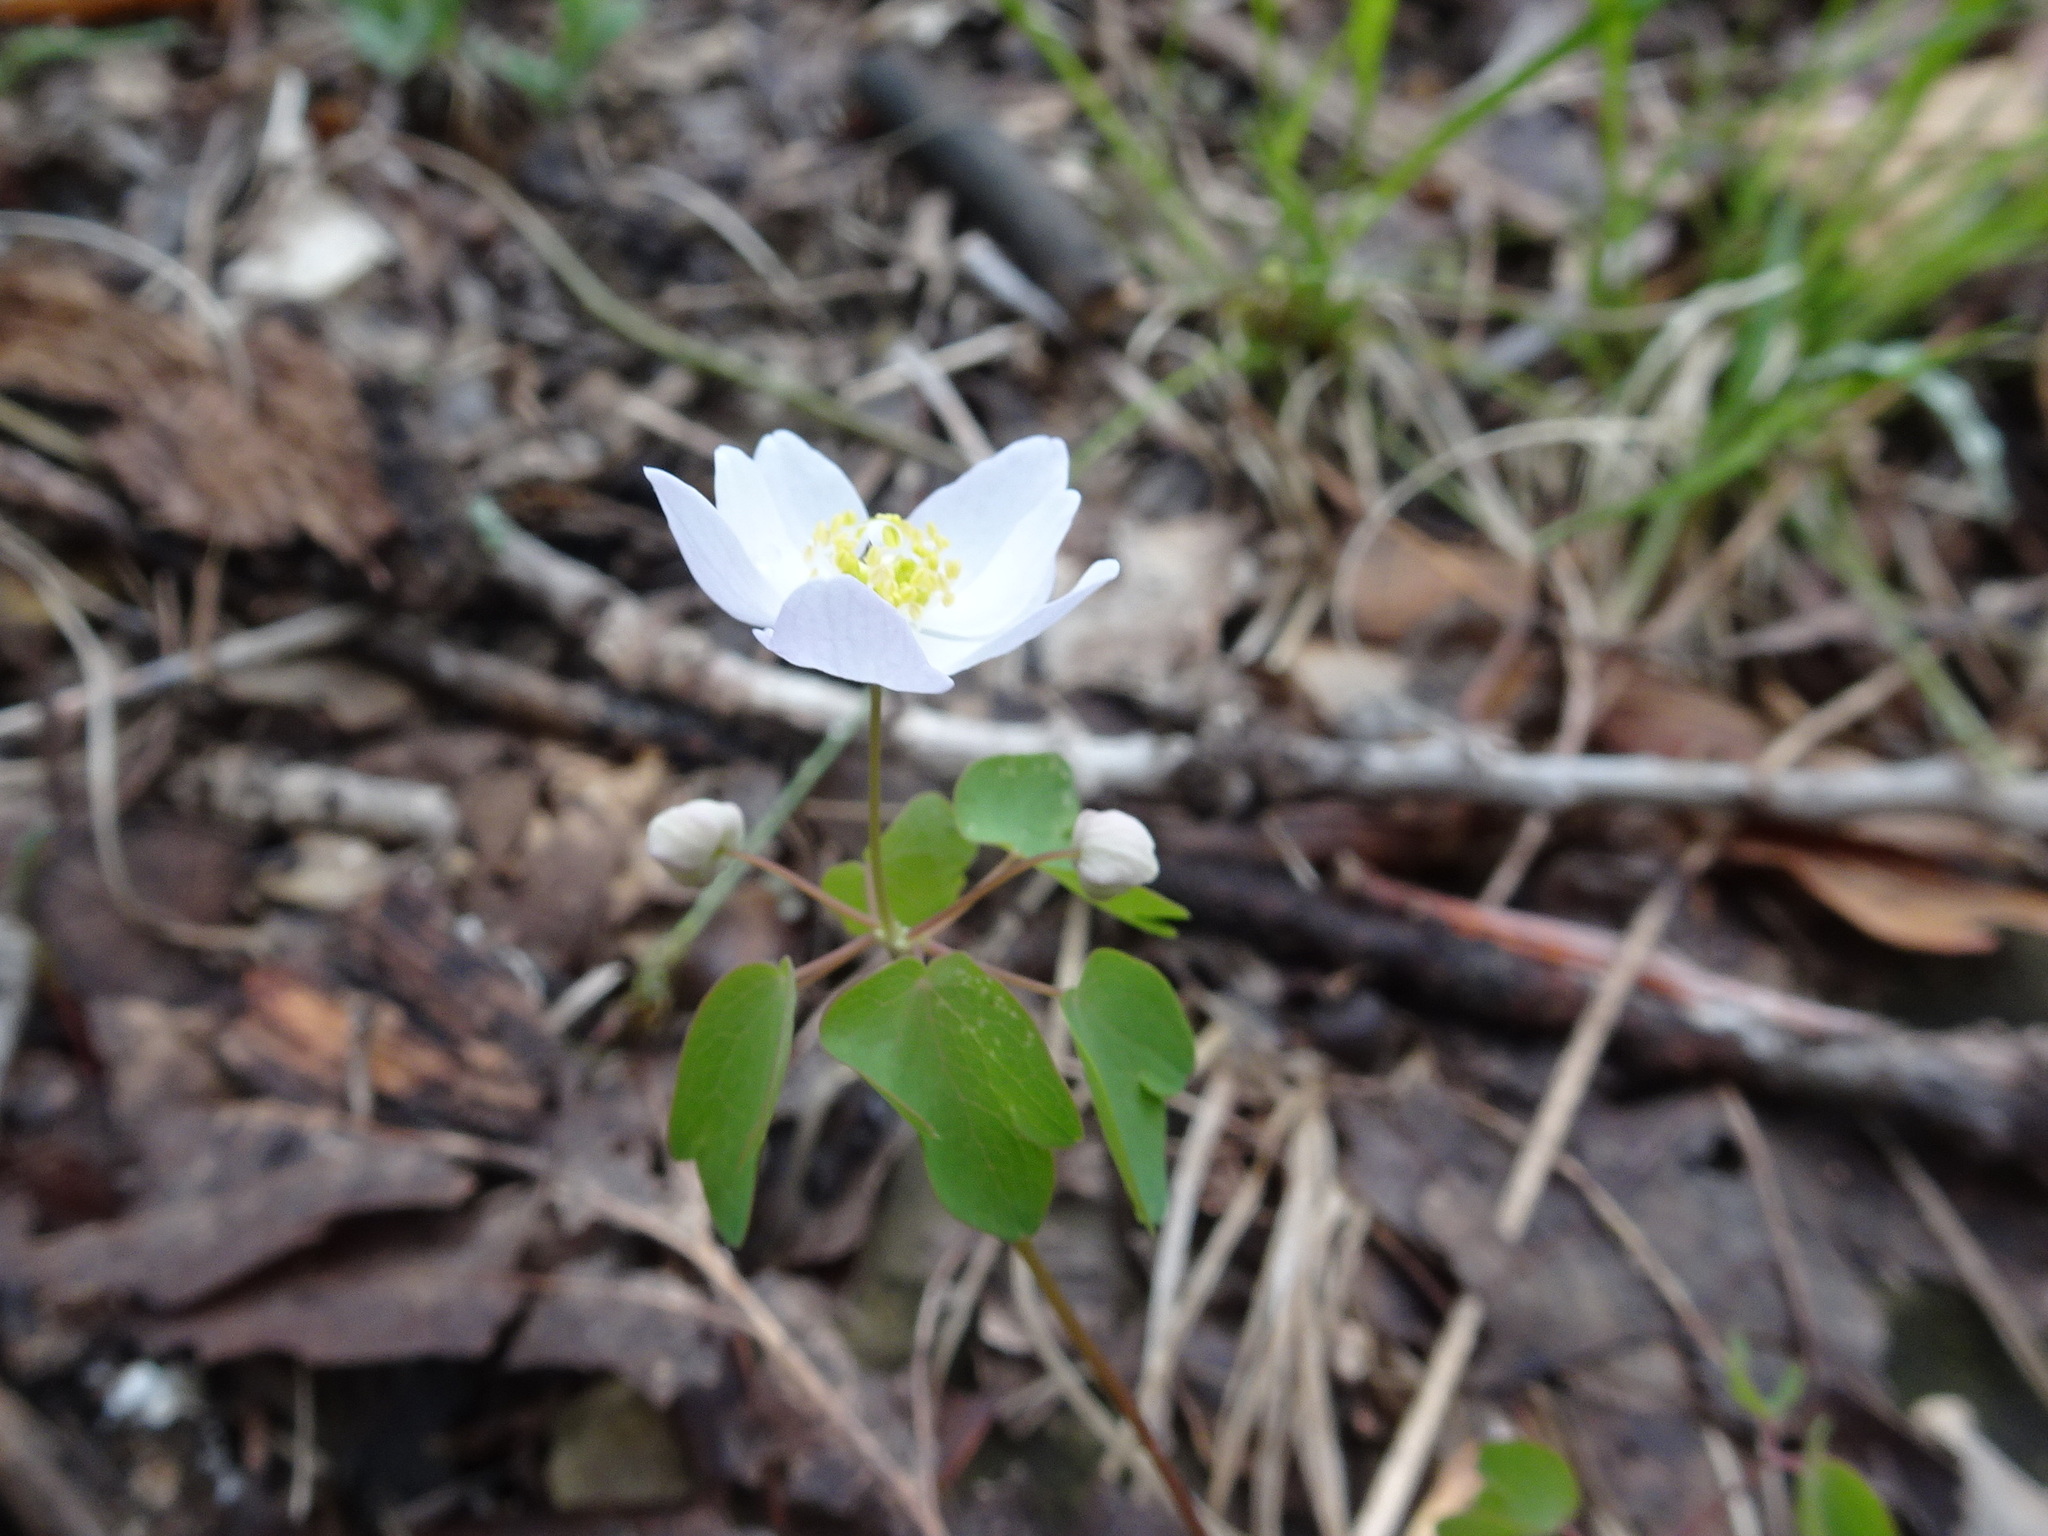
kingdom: Plantae
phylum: Tracheophyta
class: Magnoliopsida
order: Ranunculales
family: Ranunculaceae
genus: Thalictrum
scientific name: Thalictrum thalictroides
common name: Rue-anemone
